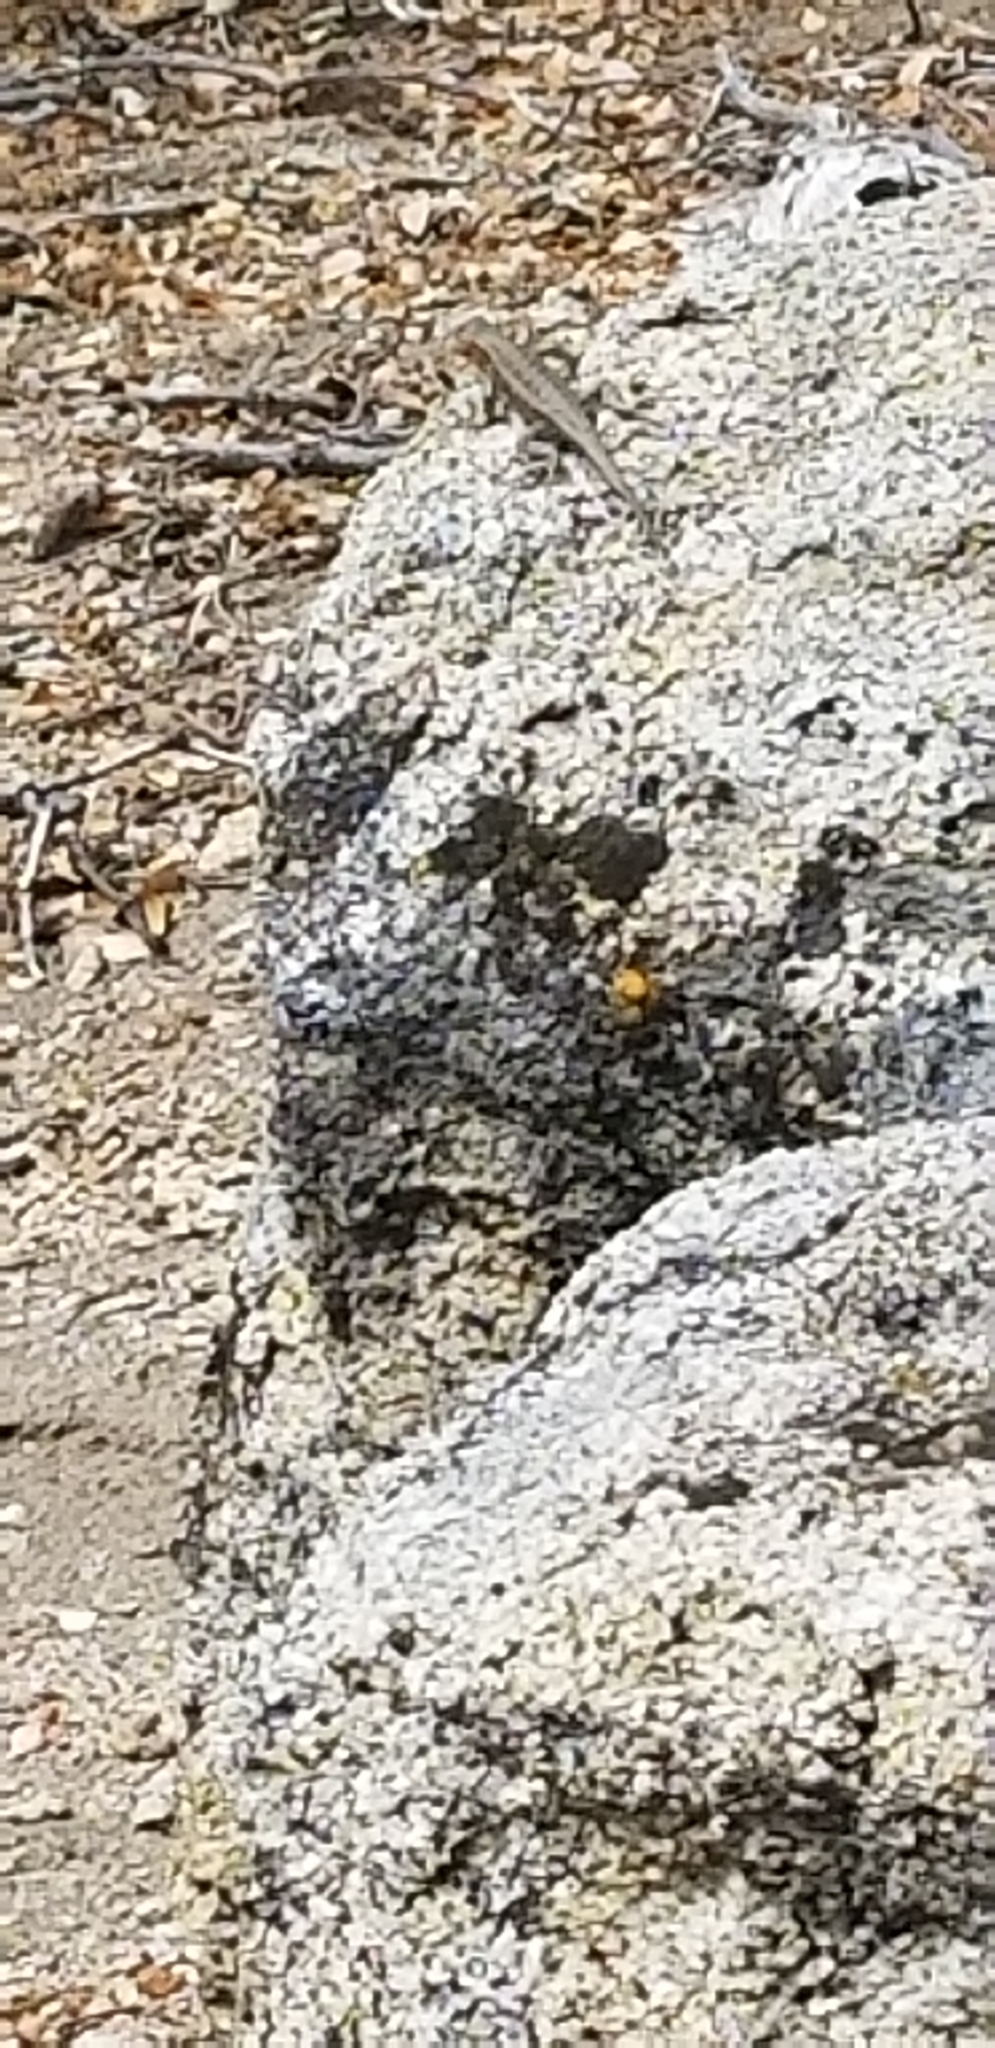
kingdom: Animalia
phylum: Chordata
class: Squamata
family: Phrynosomatidae
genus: Sceloporus
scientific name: Sceloporus graciosus
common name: Sagebrush lizard
